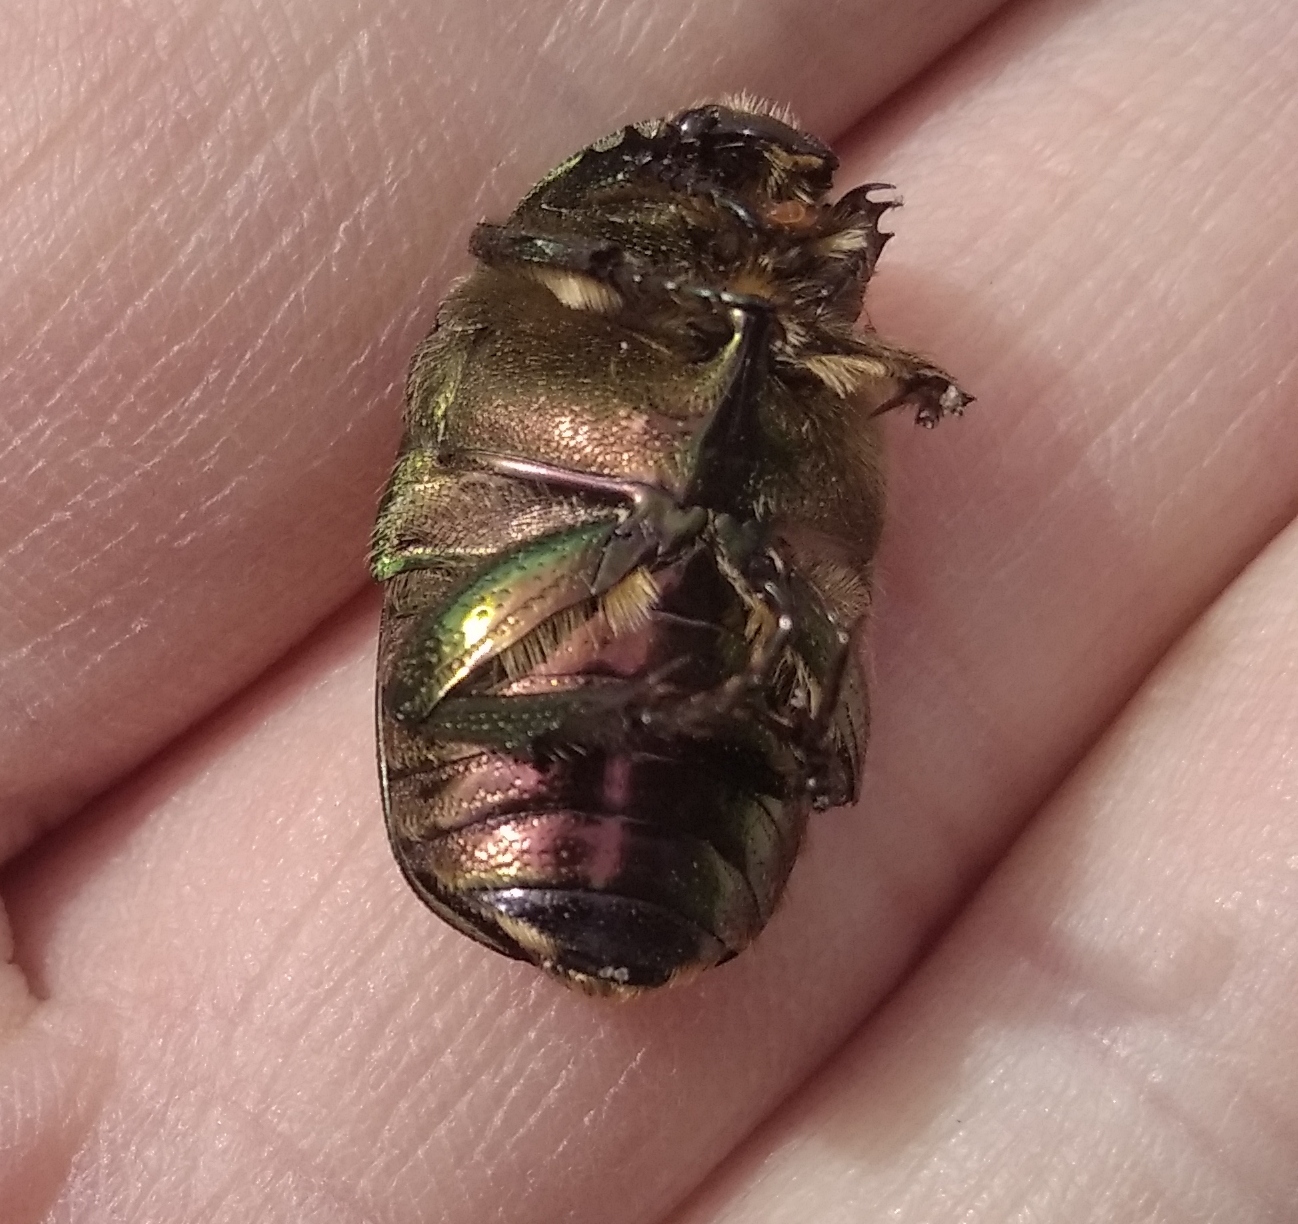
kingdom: Animalia
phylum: Arthropoda
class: Insecta
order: Coleoptera
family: Scarabaeidae
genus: Cetonia
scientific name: Cetonia aurata
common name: Rose chafer
